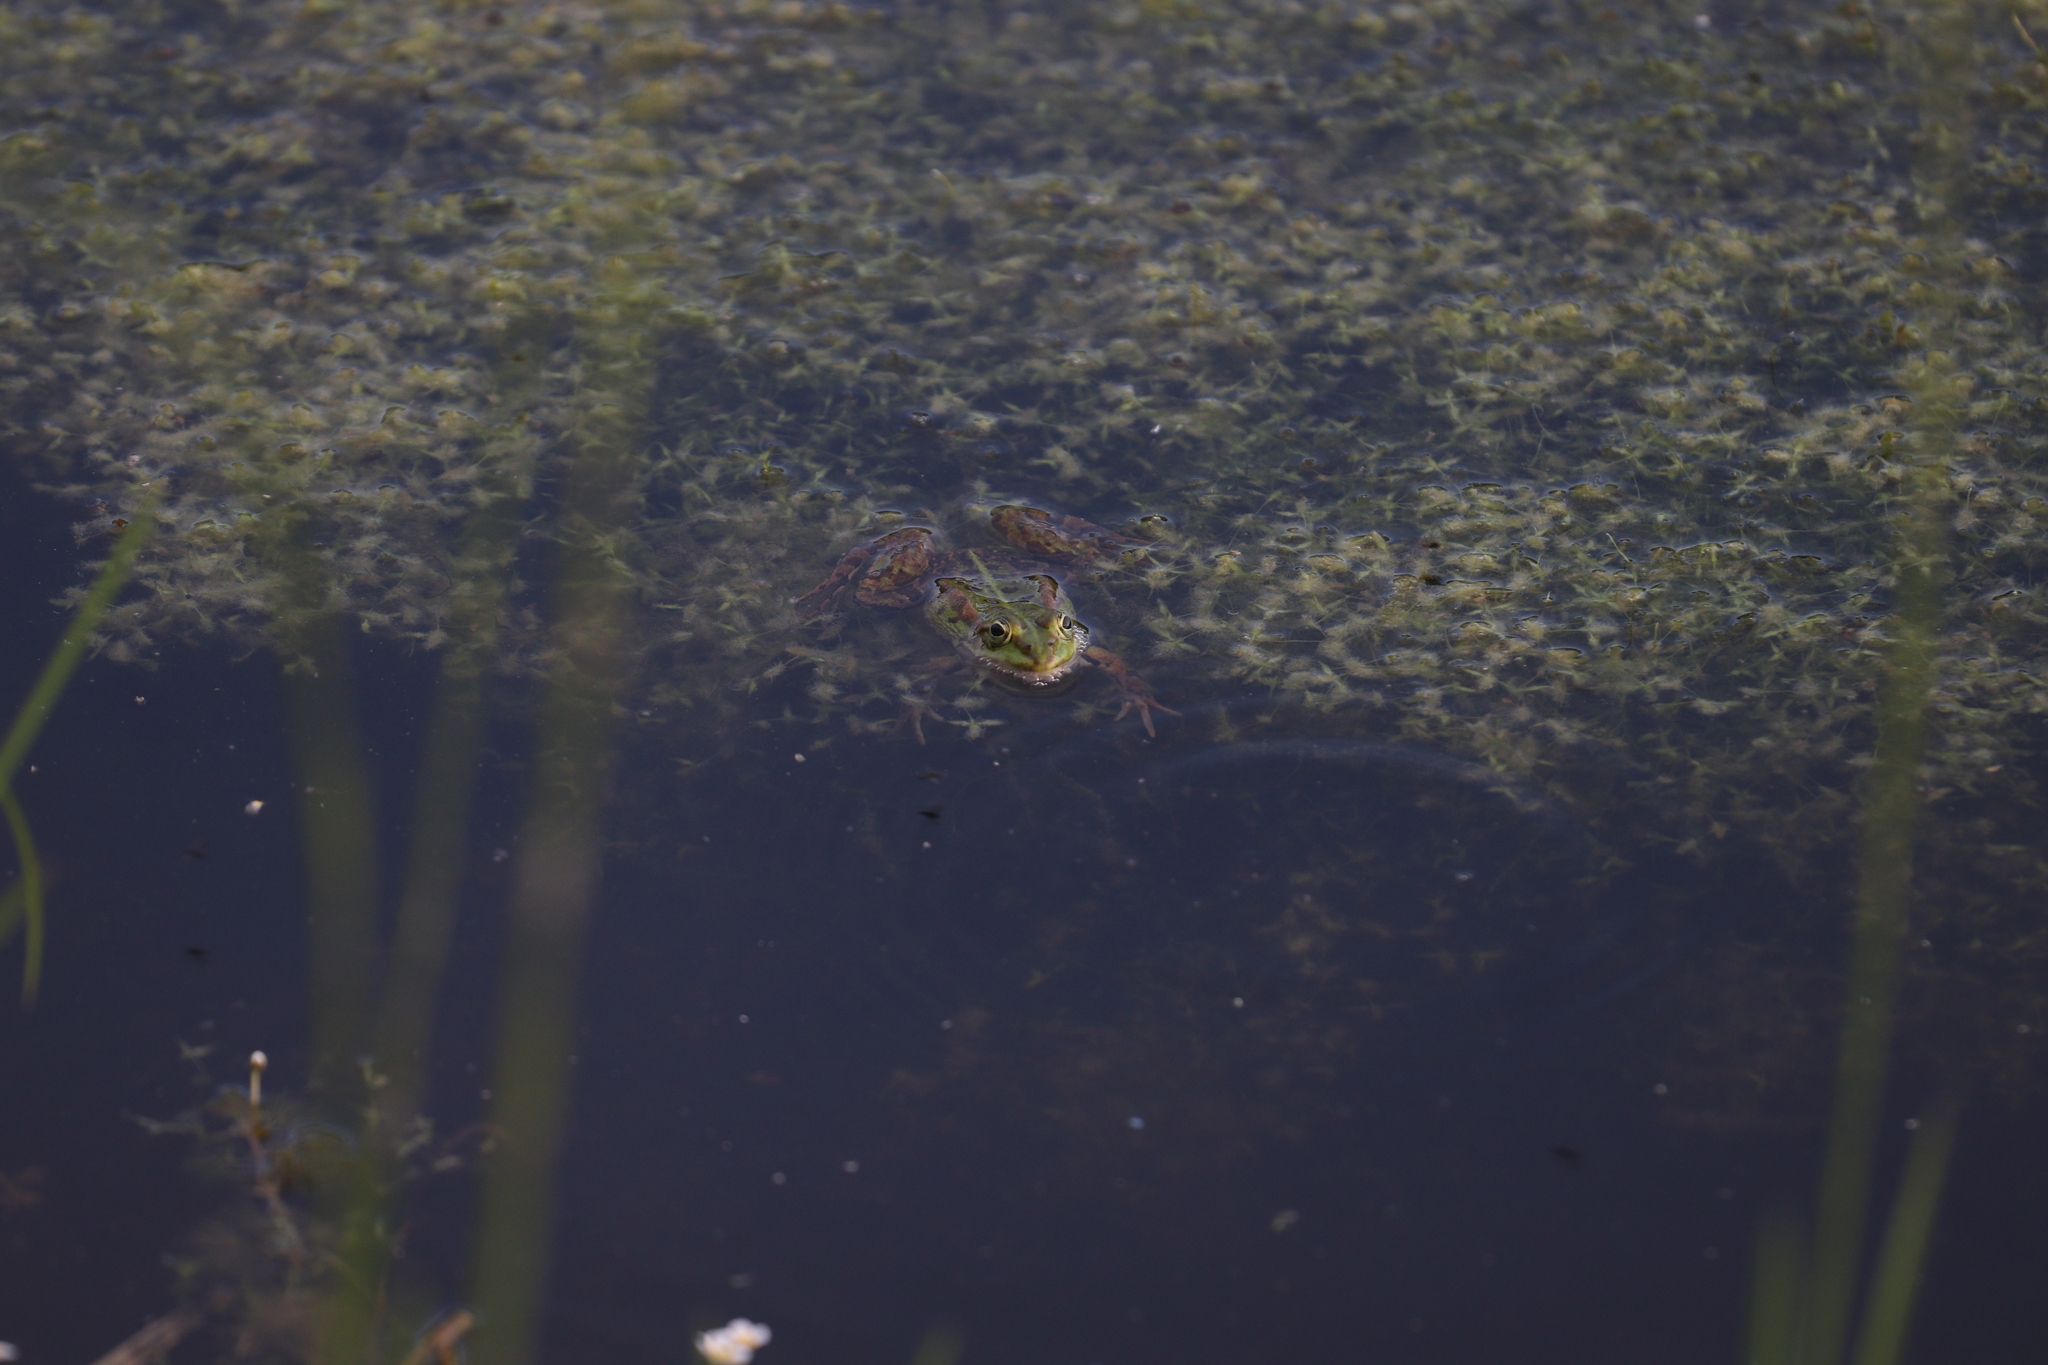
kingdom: Animalia
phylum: Chordata
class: Amphibia
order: Anura
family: Ranidae
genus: Pelophylax
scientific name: Pelophylax
